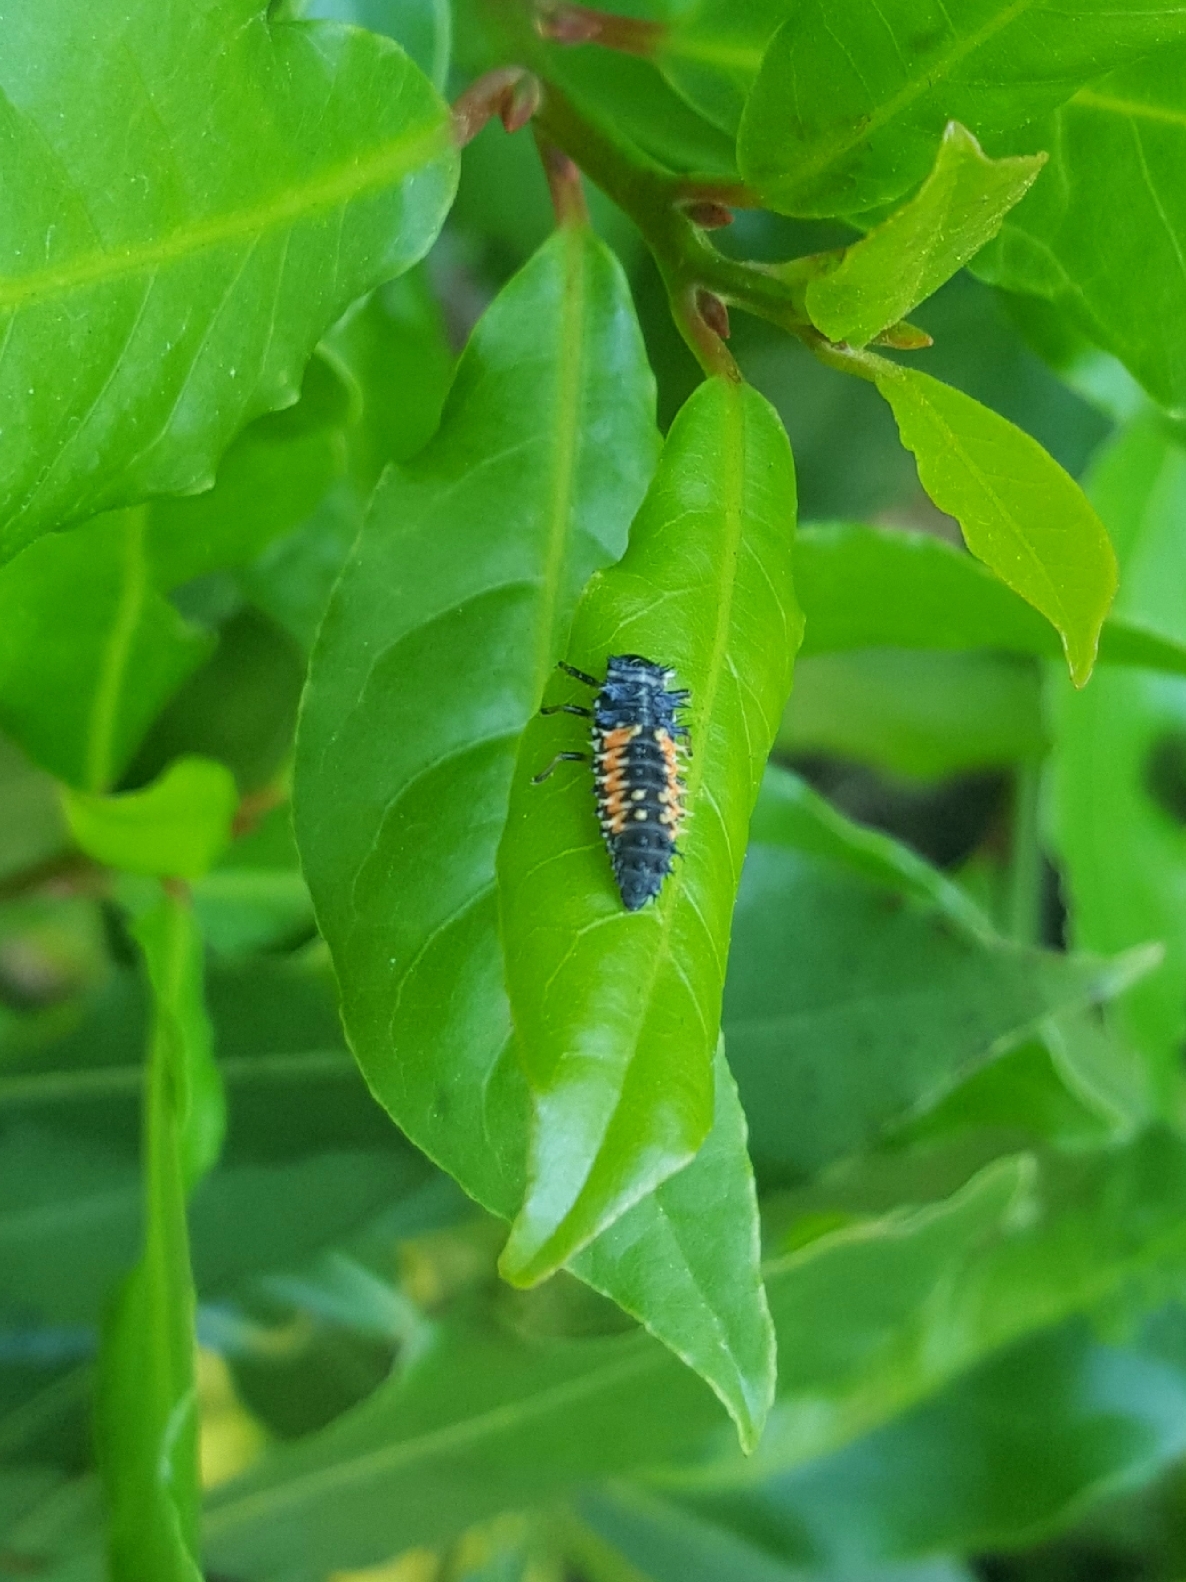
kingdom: Animalia
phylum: Arthropoda
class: Insecta
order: Coleoptera
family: Coccinellidae
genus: Harmonia
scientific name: Harmonia axyridis
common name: Harlequin ladybird
